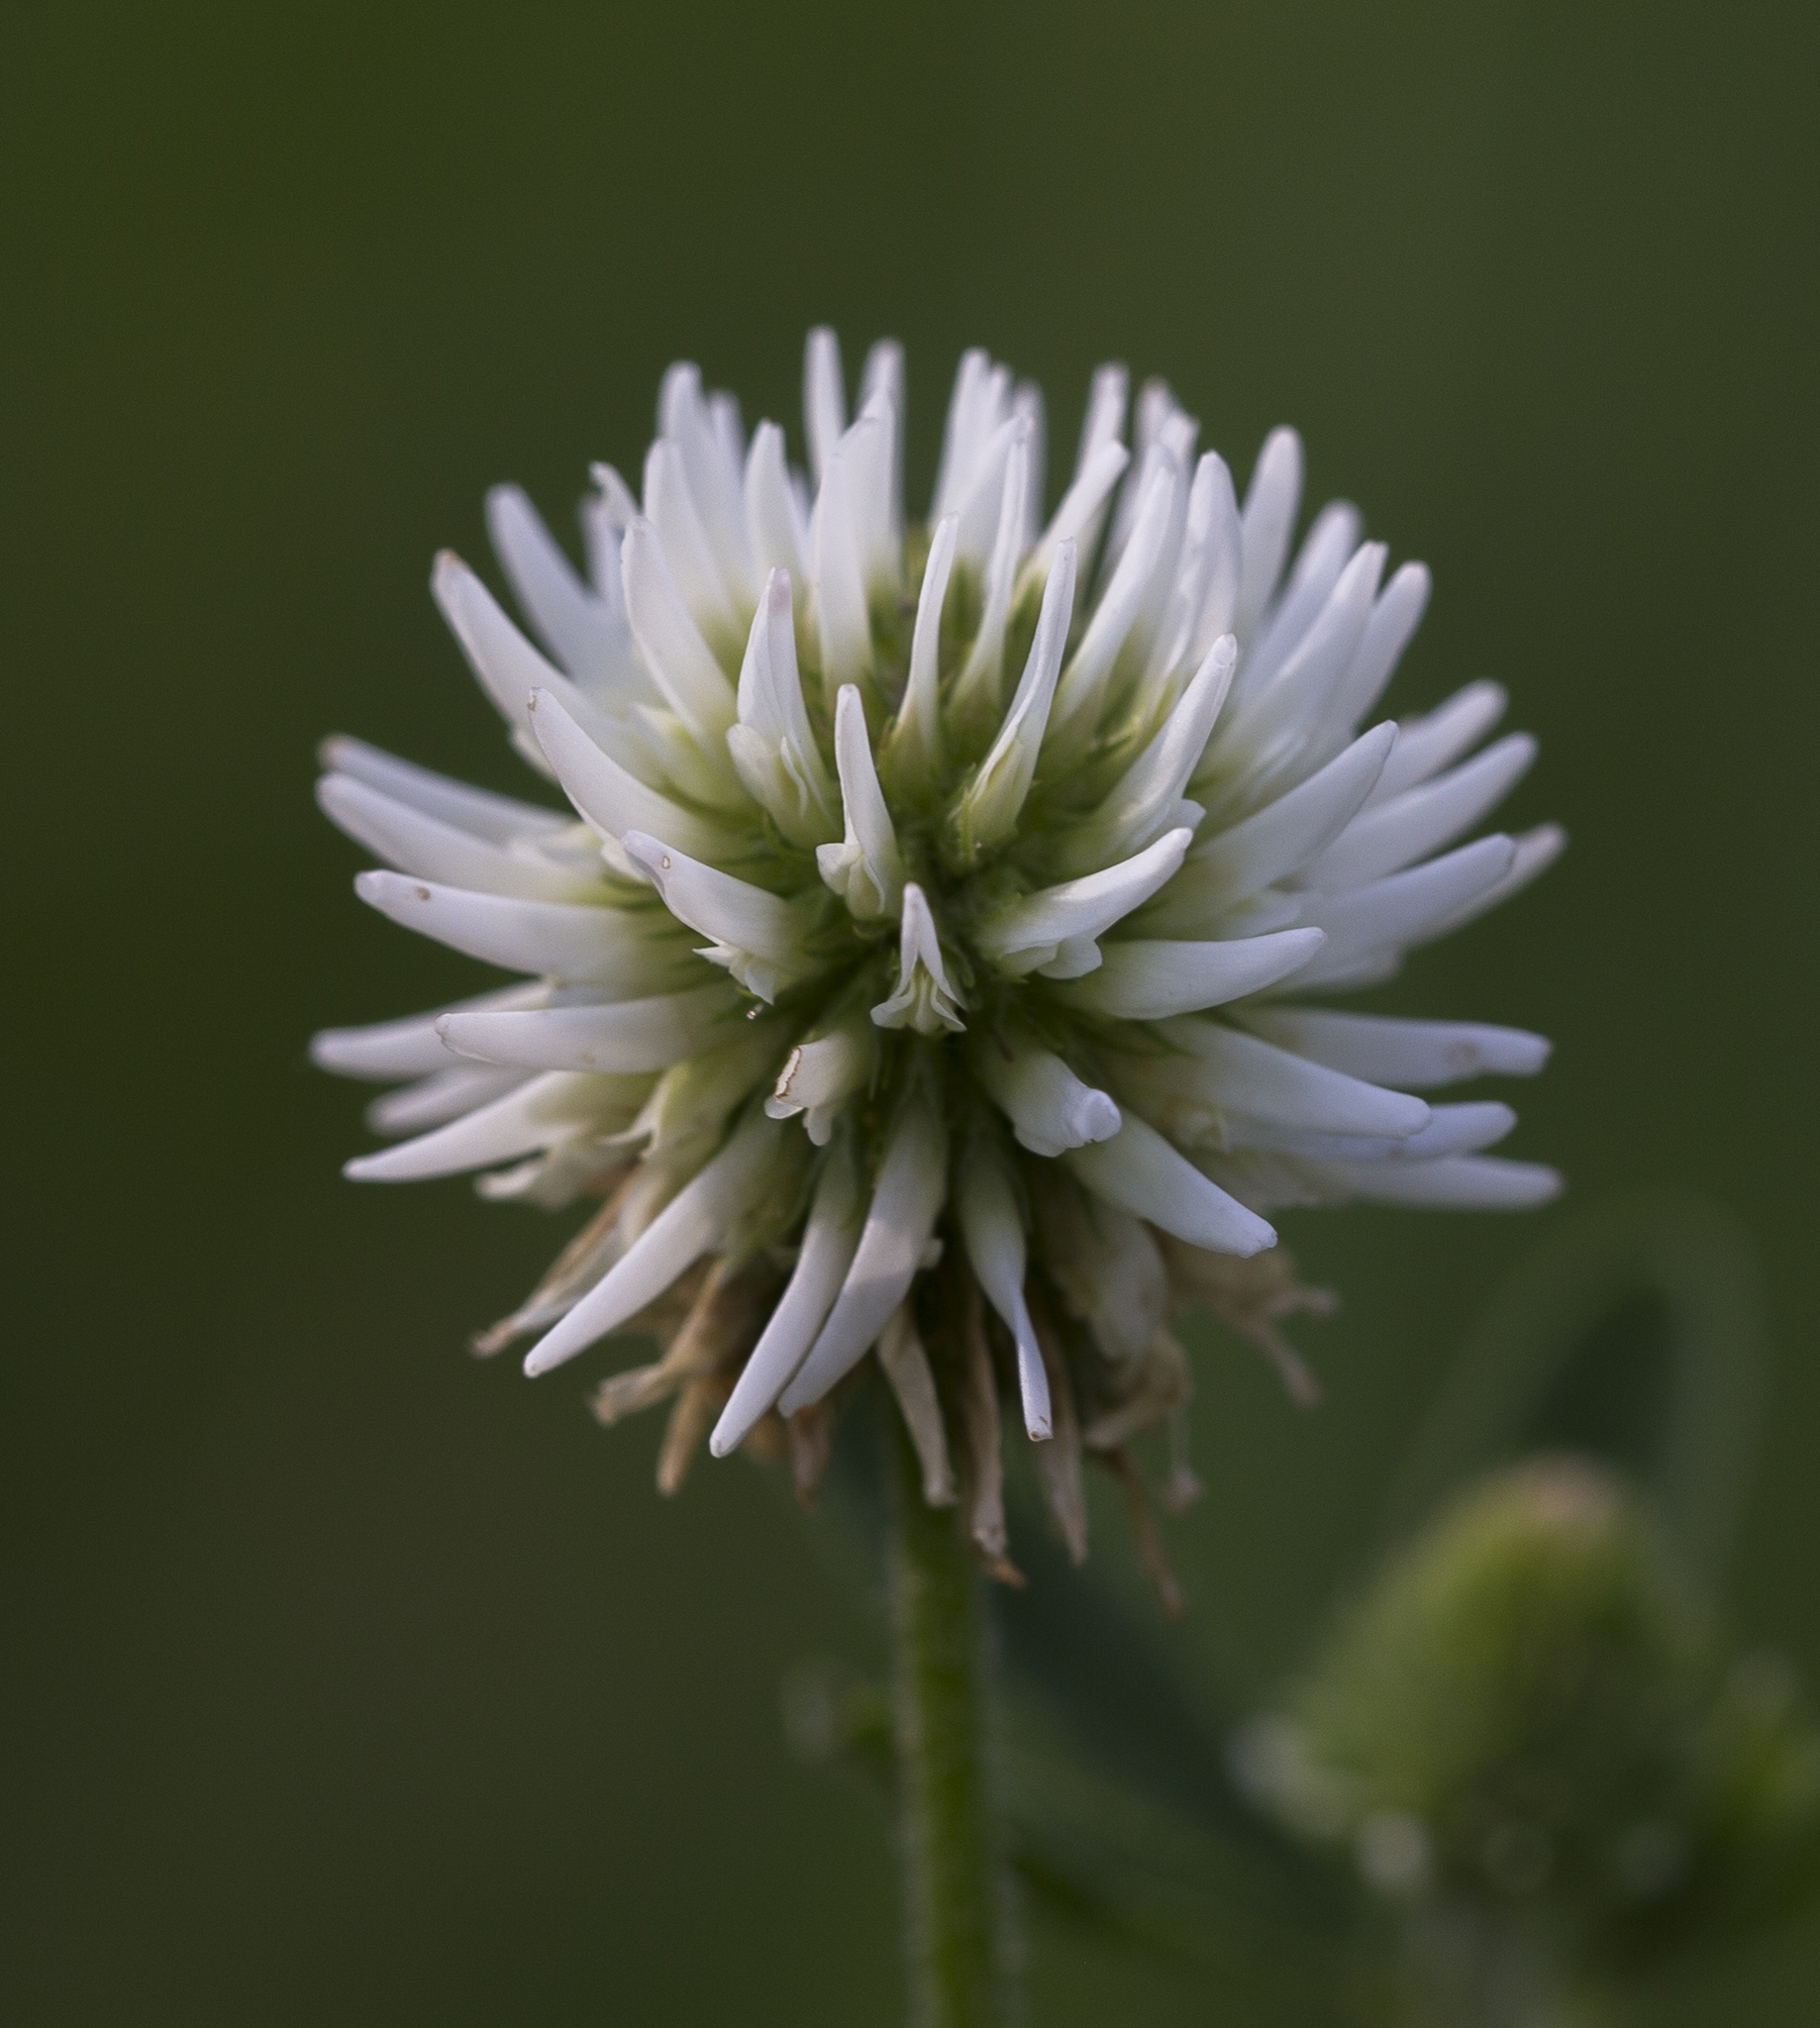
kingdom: Plantae
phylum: Tracheophyta
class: Magnoliopsida
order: Fabales
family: Fabaceae
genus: Trifolium
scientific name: Trifolium montanum
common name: Mountain clover
